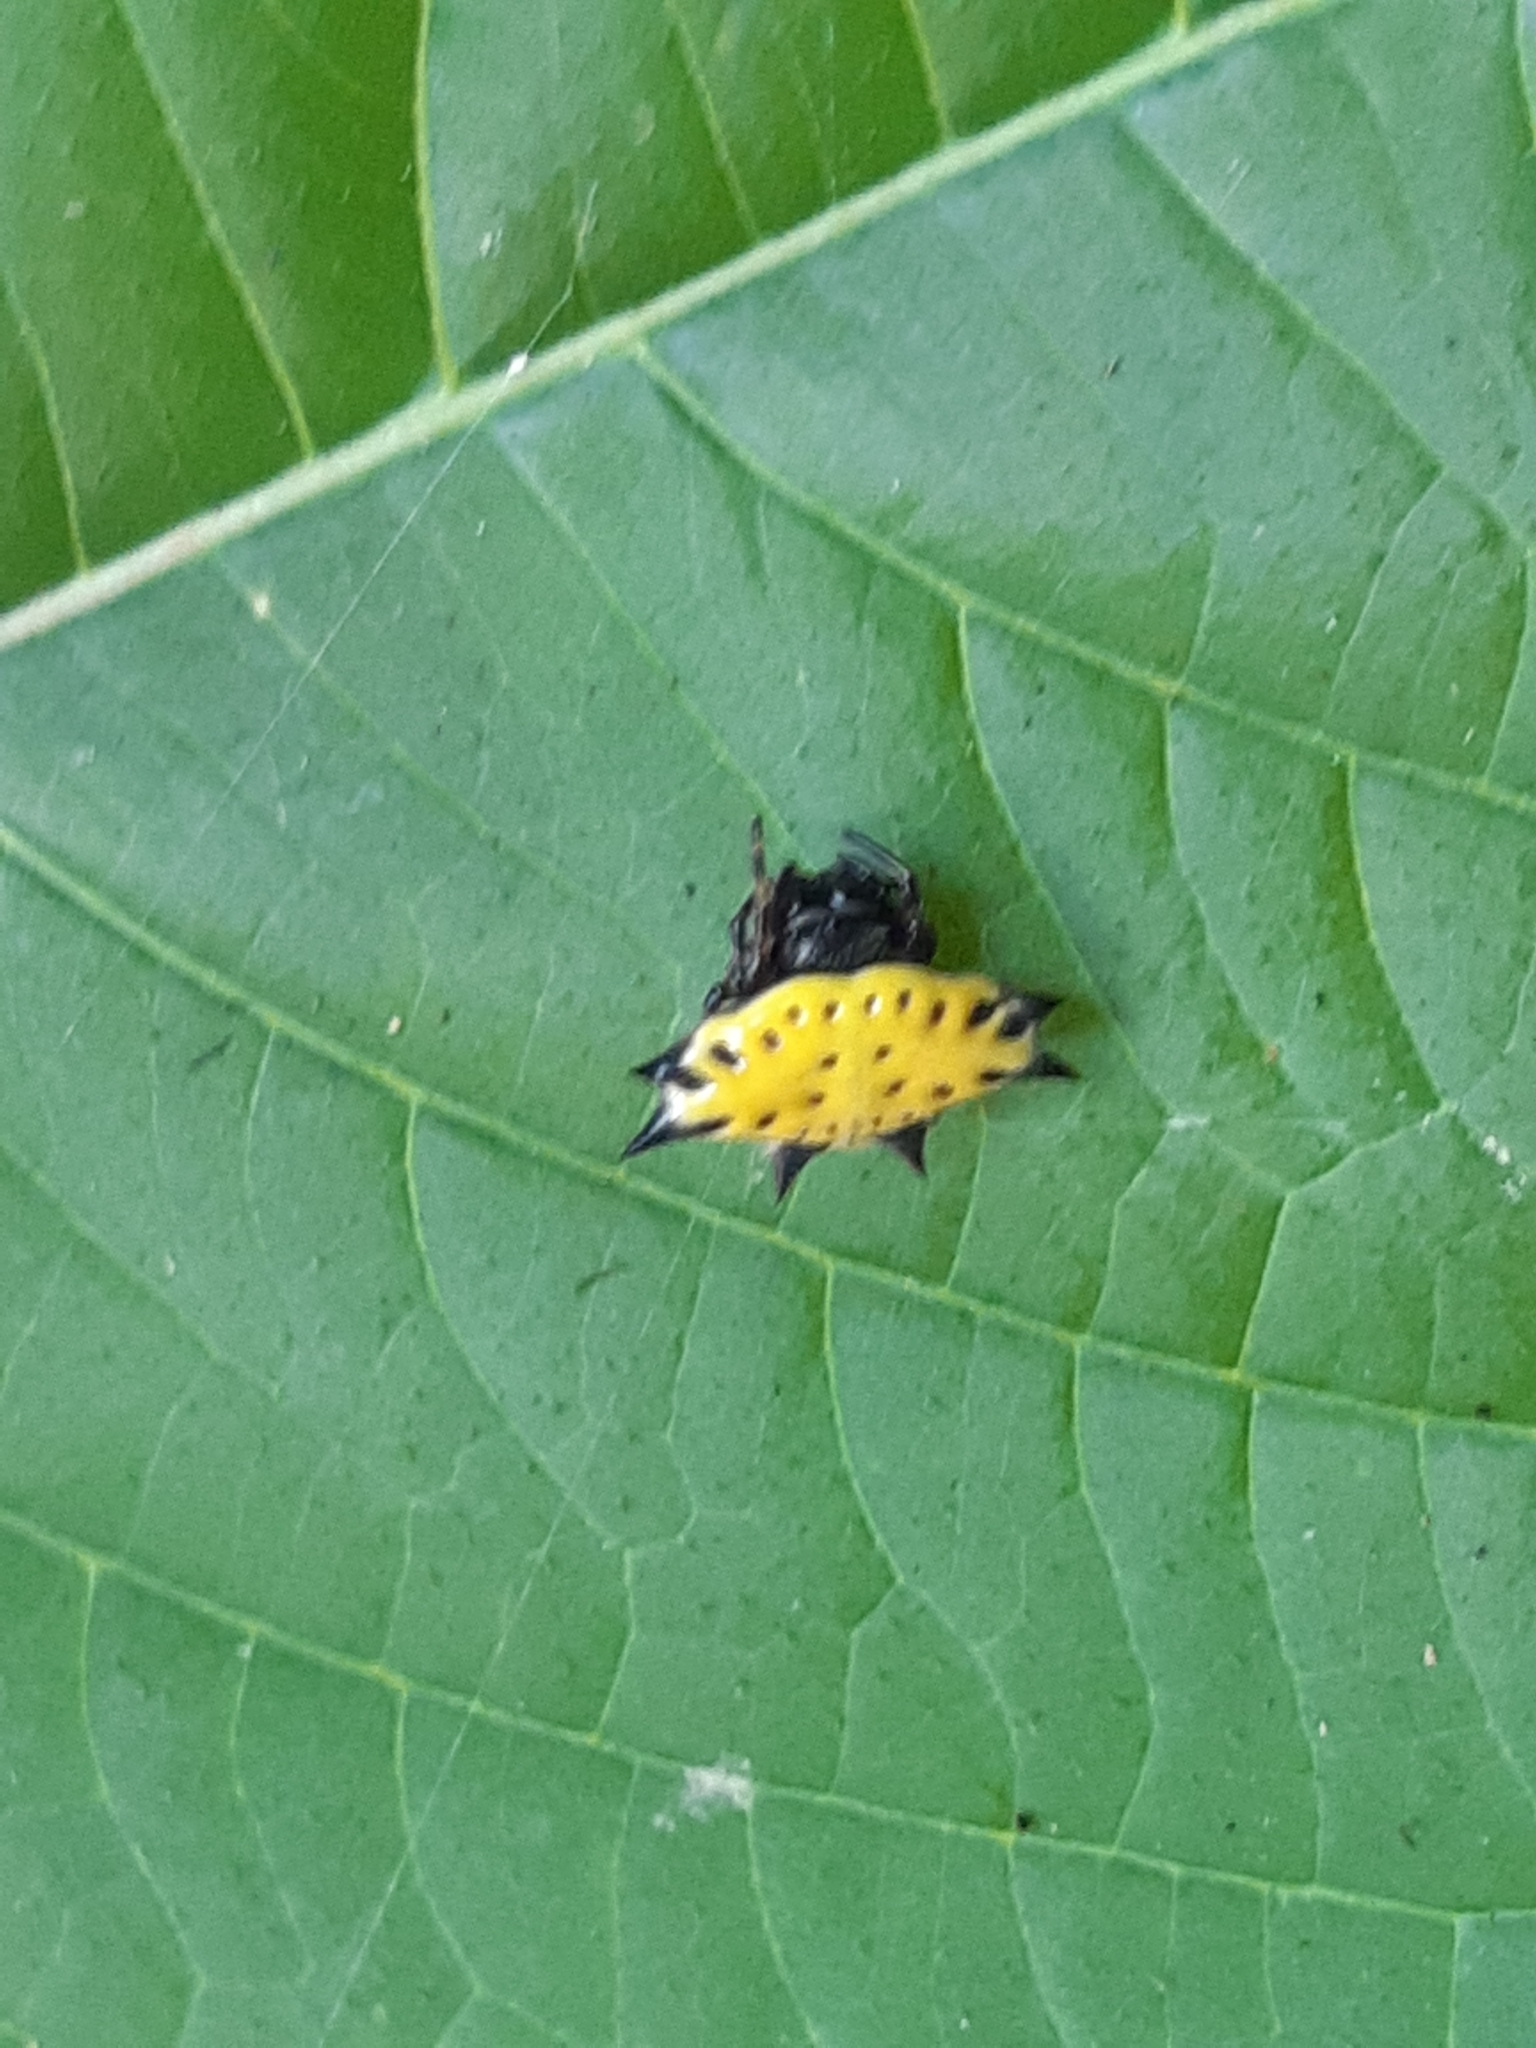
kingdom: Animalia
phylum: Arthropoda
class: Arachnida
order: Araneae
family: Araneidae
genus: Gasteracantha
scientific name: Gasteracantha cancriformis
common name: Orb weavers
